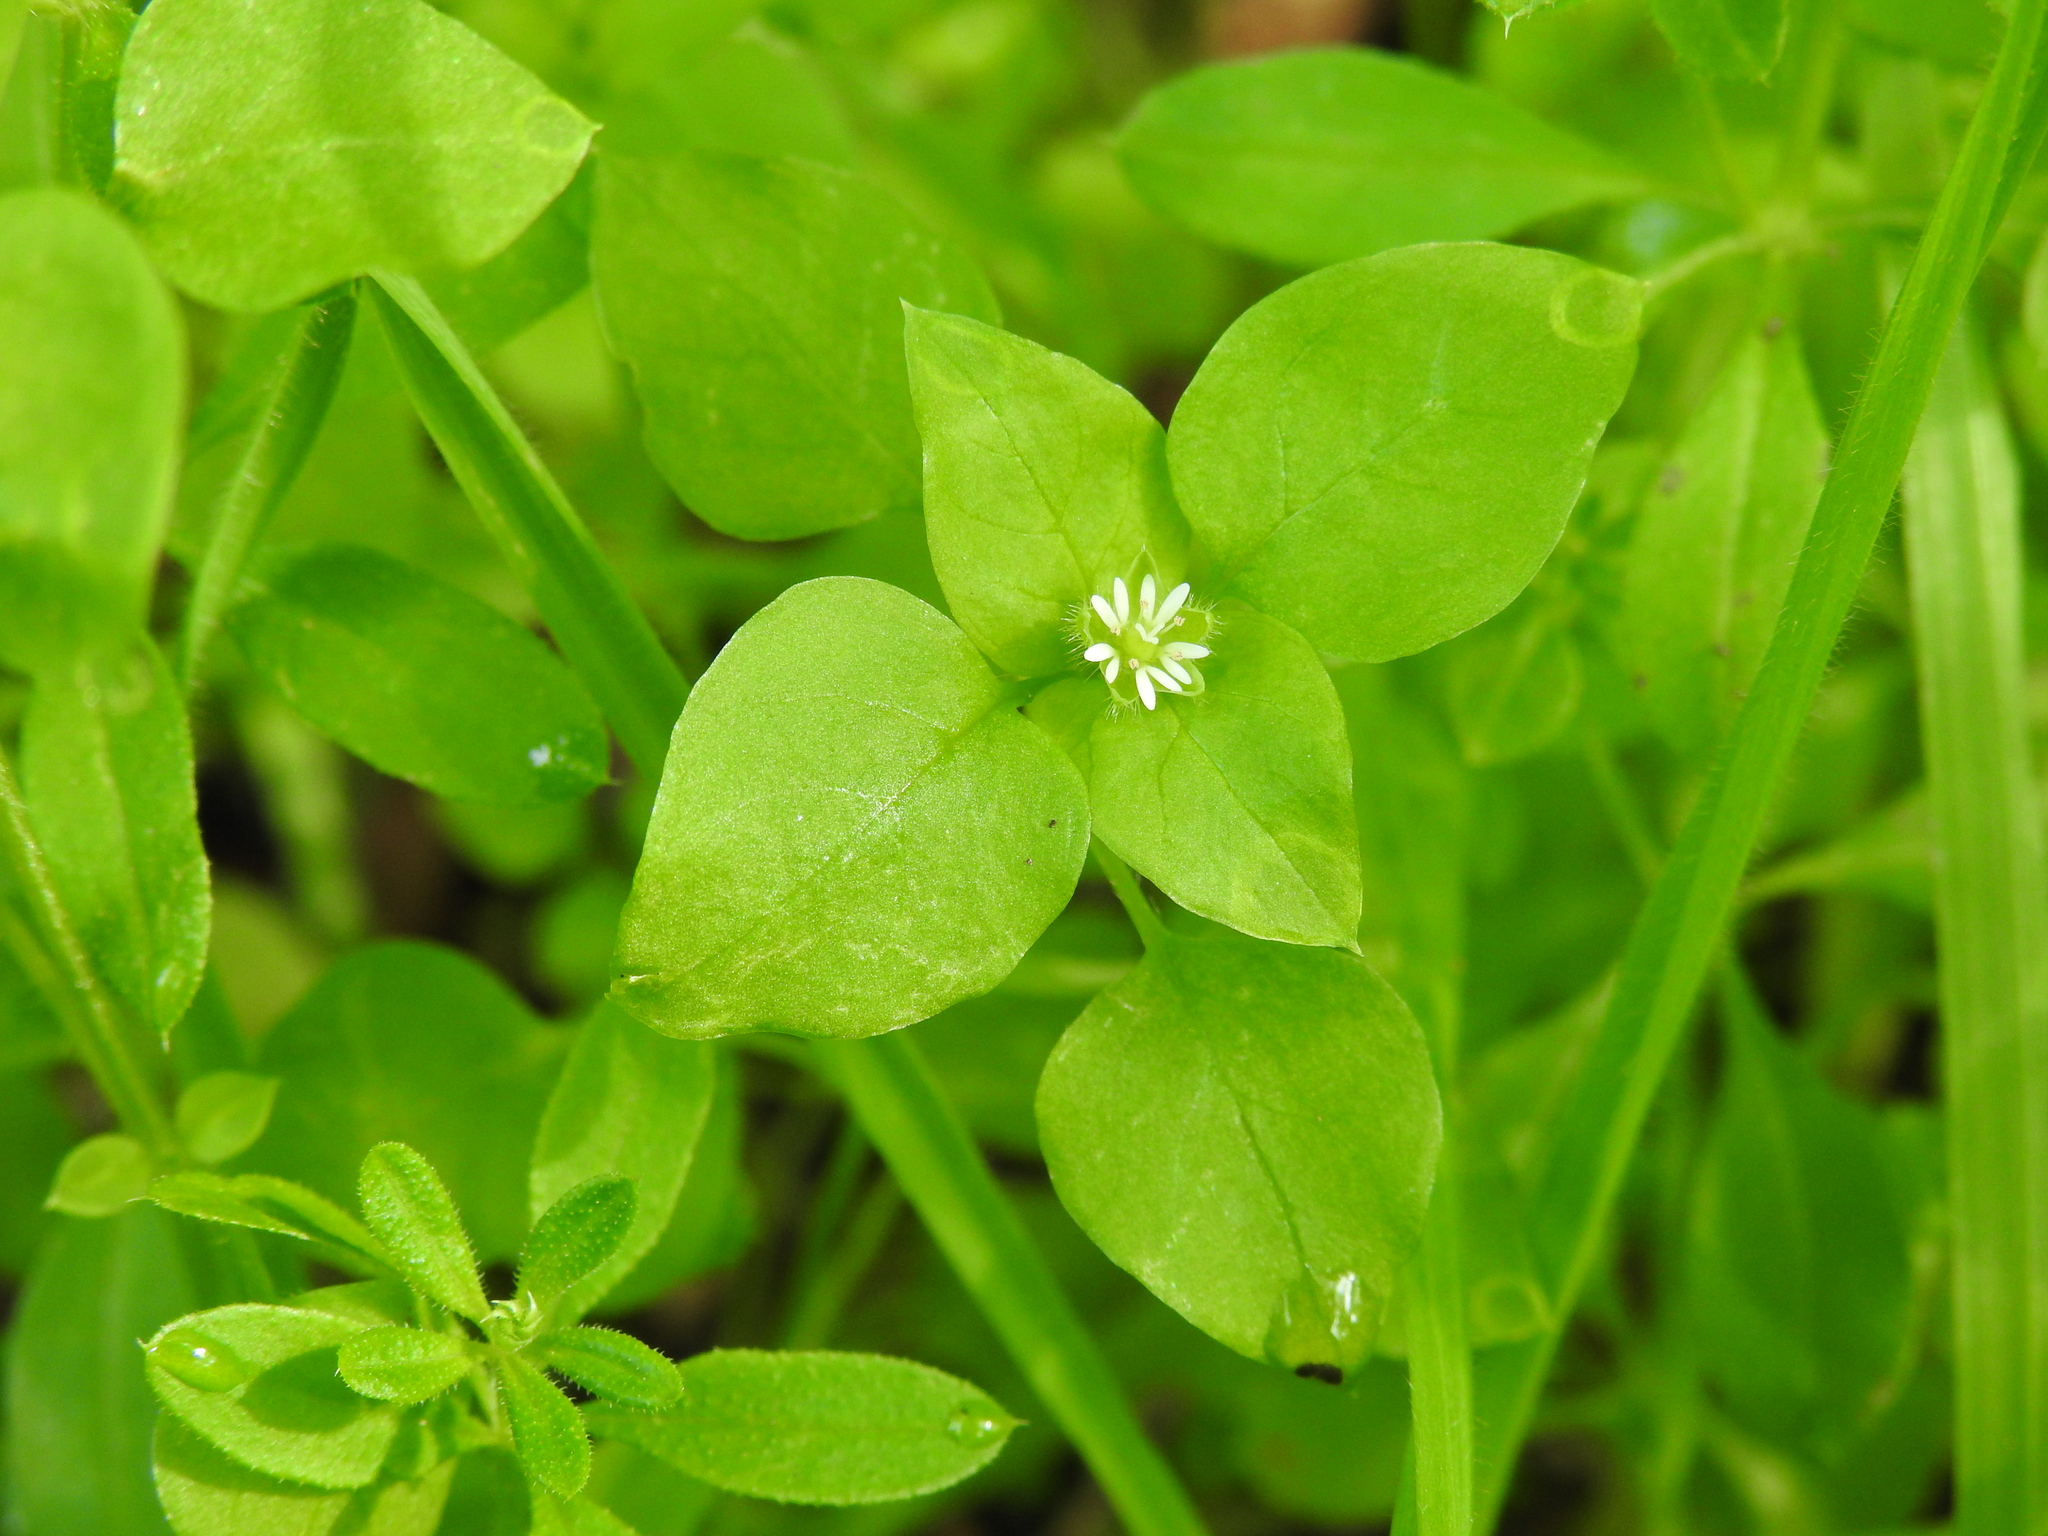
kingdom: Plantae
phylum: Tracheophyta
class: Magnoliopsida
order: Caryophyllales
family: Caryophyllaceae
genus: Stellaria
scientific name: Stellaria media
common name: Common chickweed
